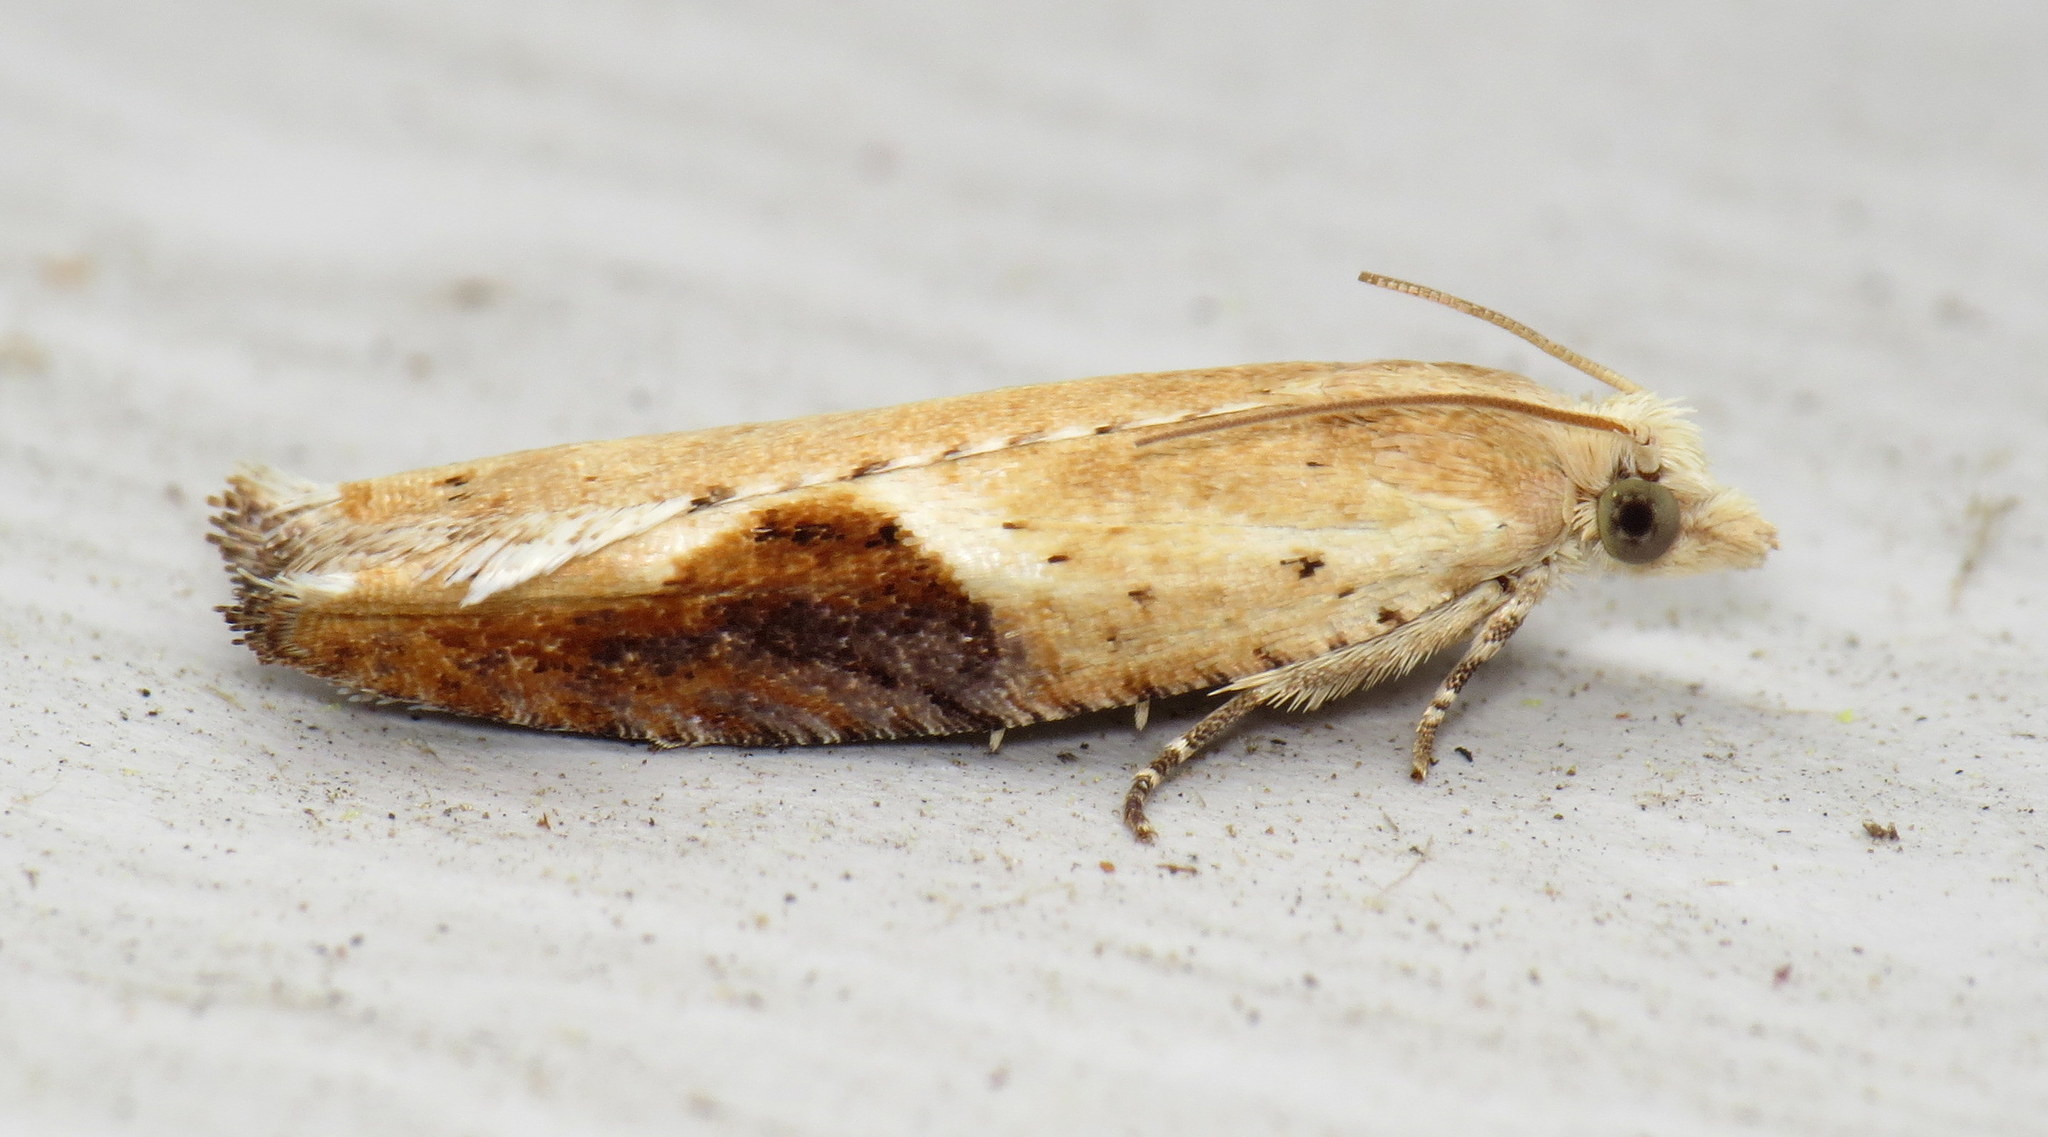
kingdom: Animalia
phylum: Arthropoda
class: Insecta
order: Lepidoptera
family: Tortricidae
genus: Pseudexentera
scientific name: Pseudexentera costomaculana
